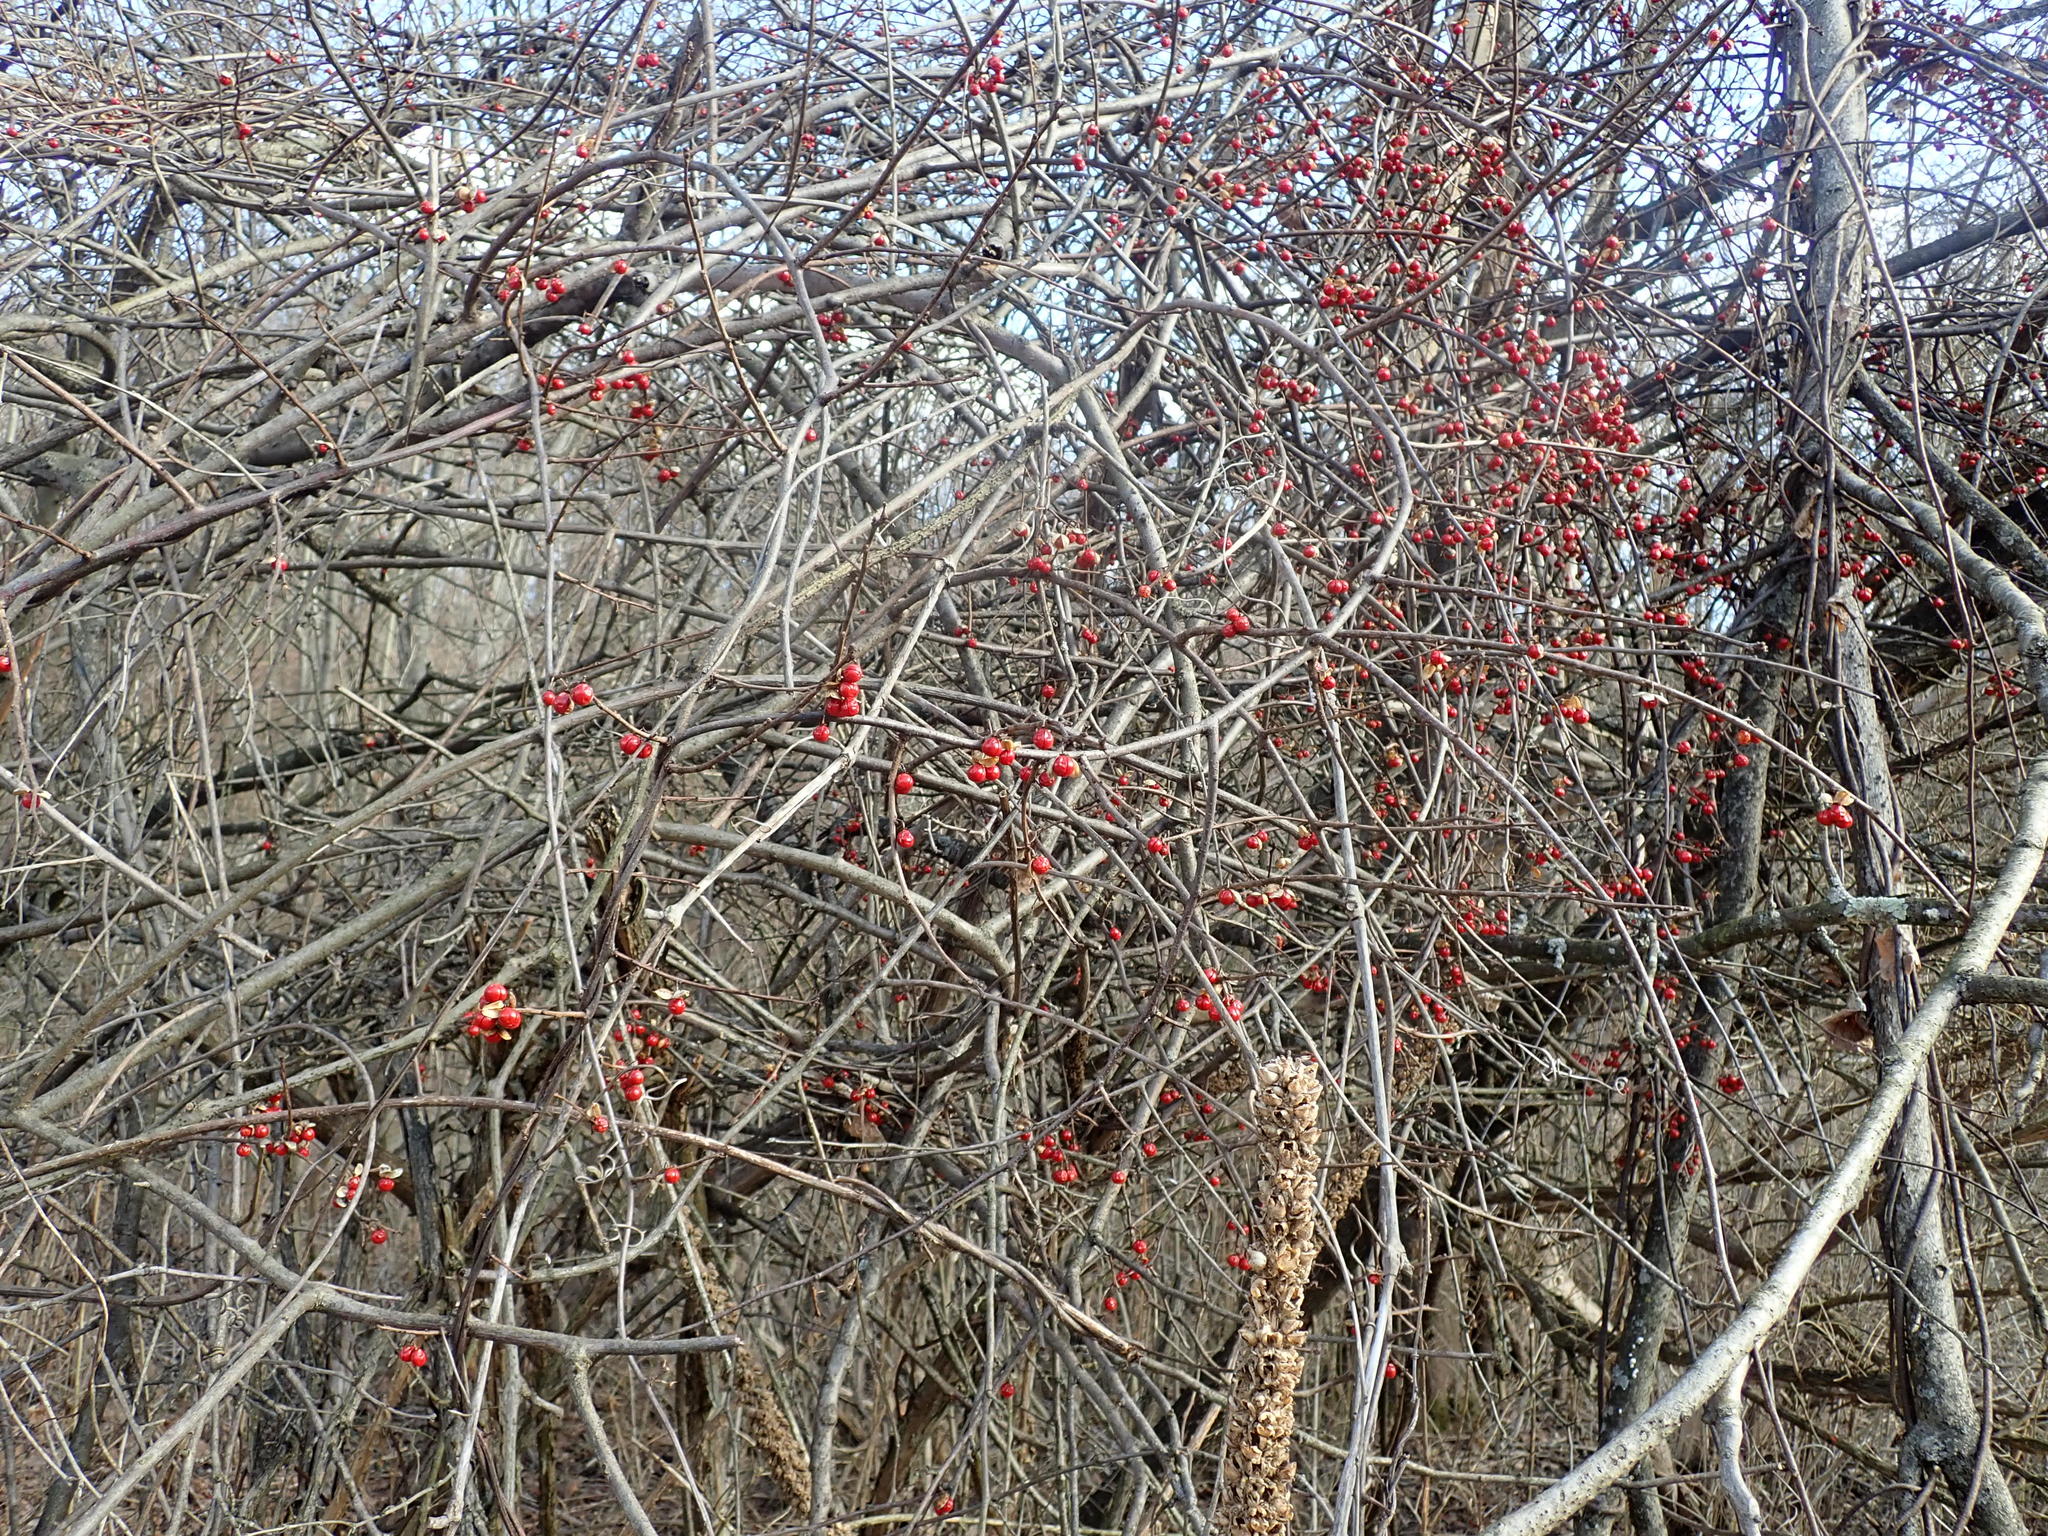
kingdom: Plantae
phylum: Tracheophyta
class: Magnoliopsida
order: Celastrales
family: Celastraceae
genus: Celastrus
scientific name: Celastrus orbiculatus
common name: Oriental bittersweet
